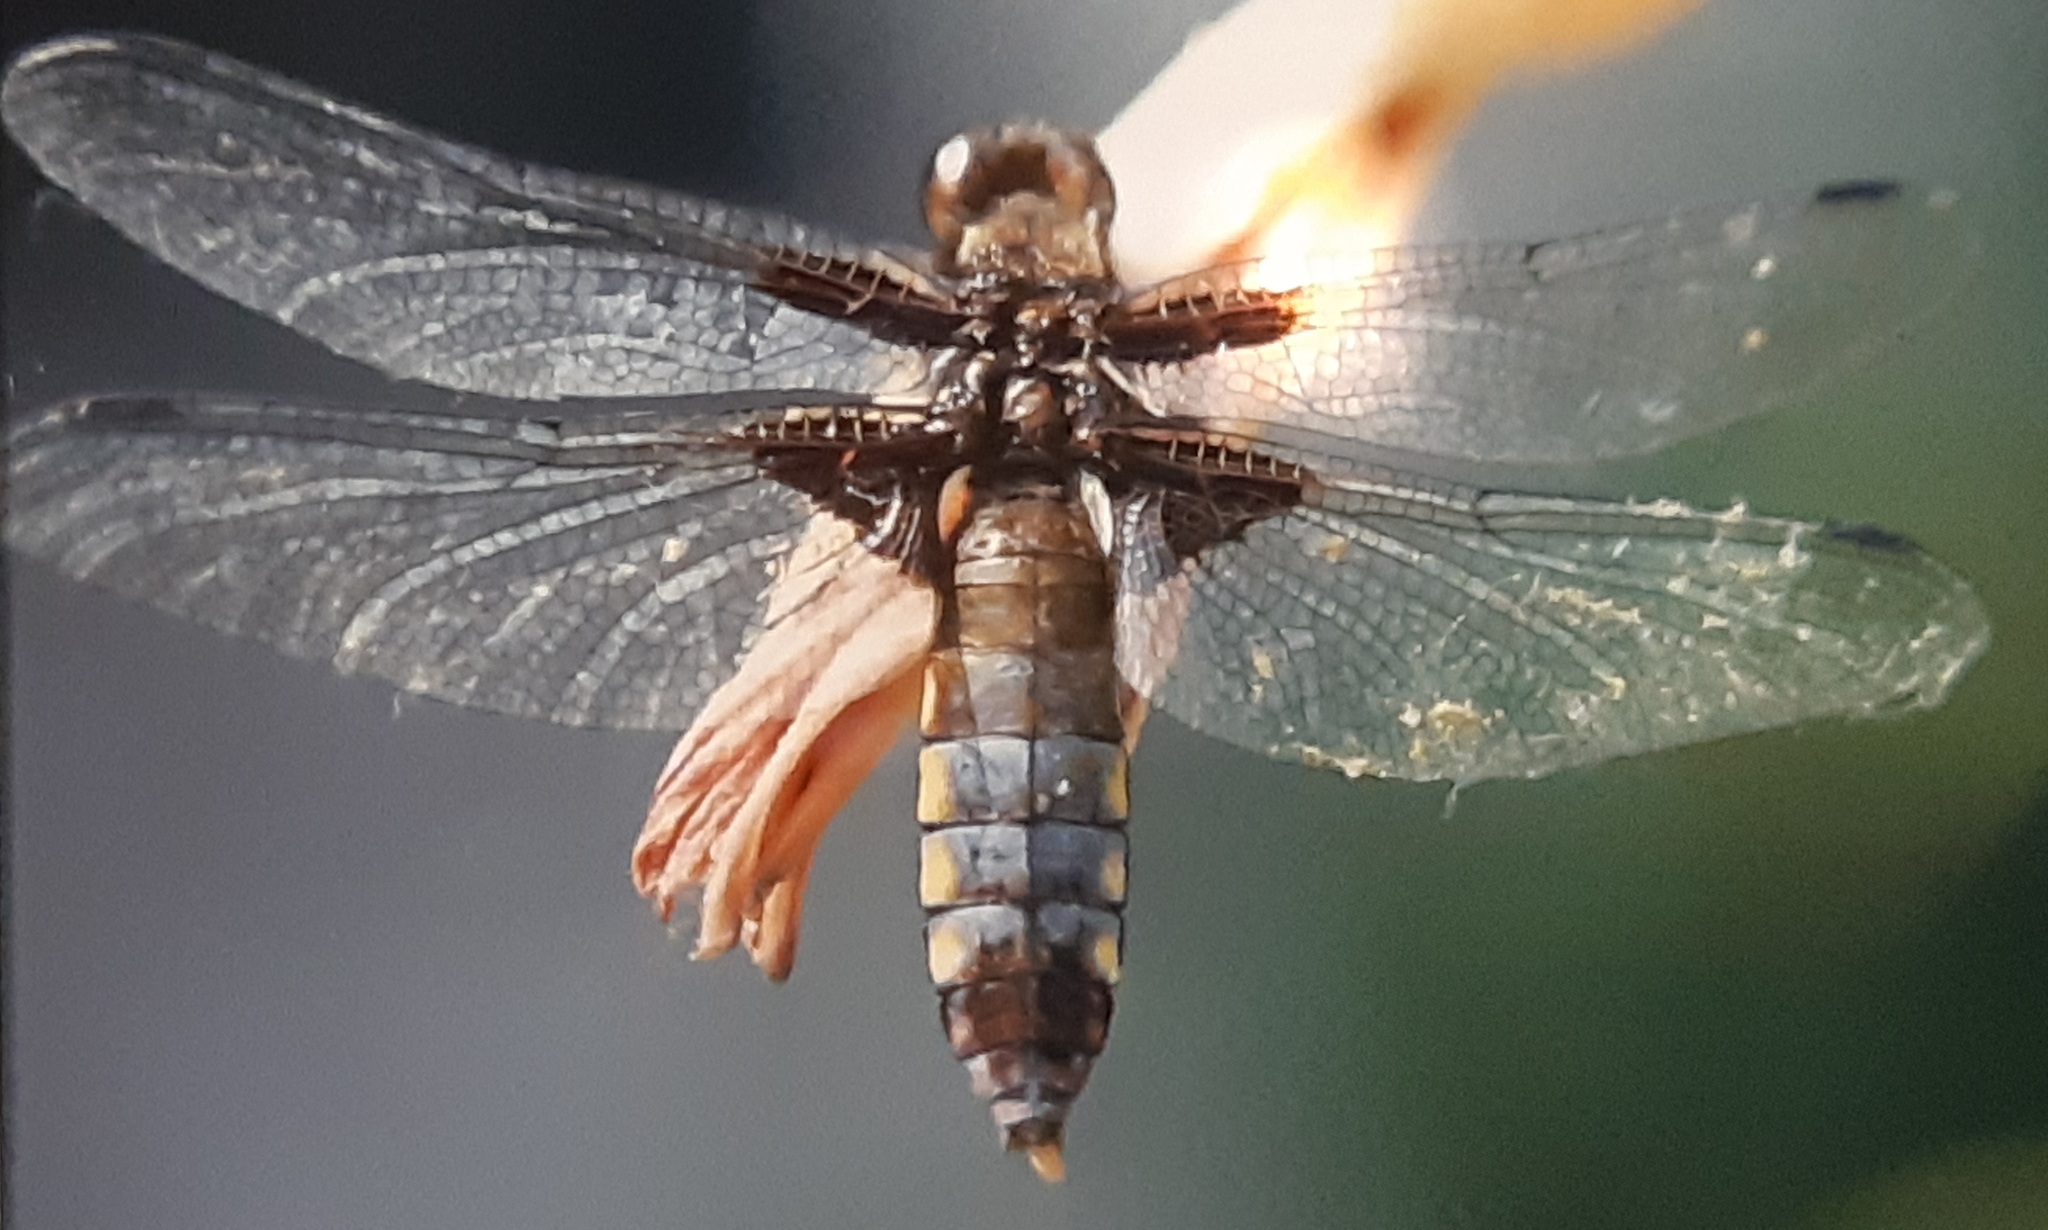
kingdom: Animalia
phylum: Arthropoda
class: Insecta
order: Odonata
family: Libellulidae
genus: Libellula
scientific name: Libellula depressa
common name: Broad-bodied chaser
